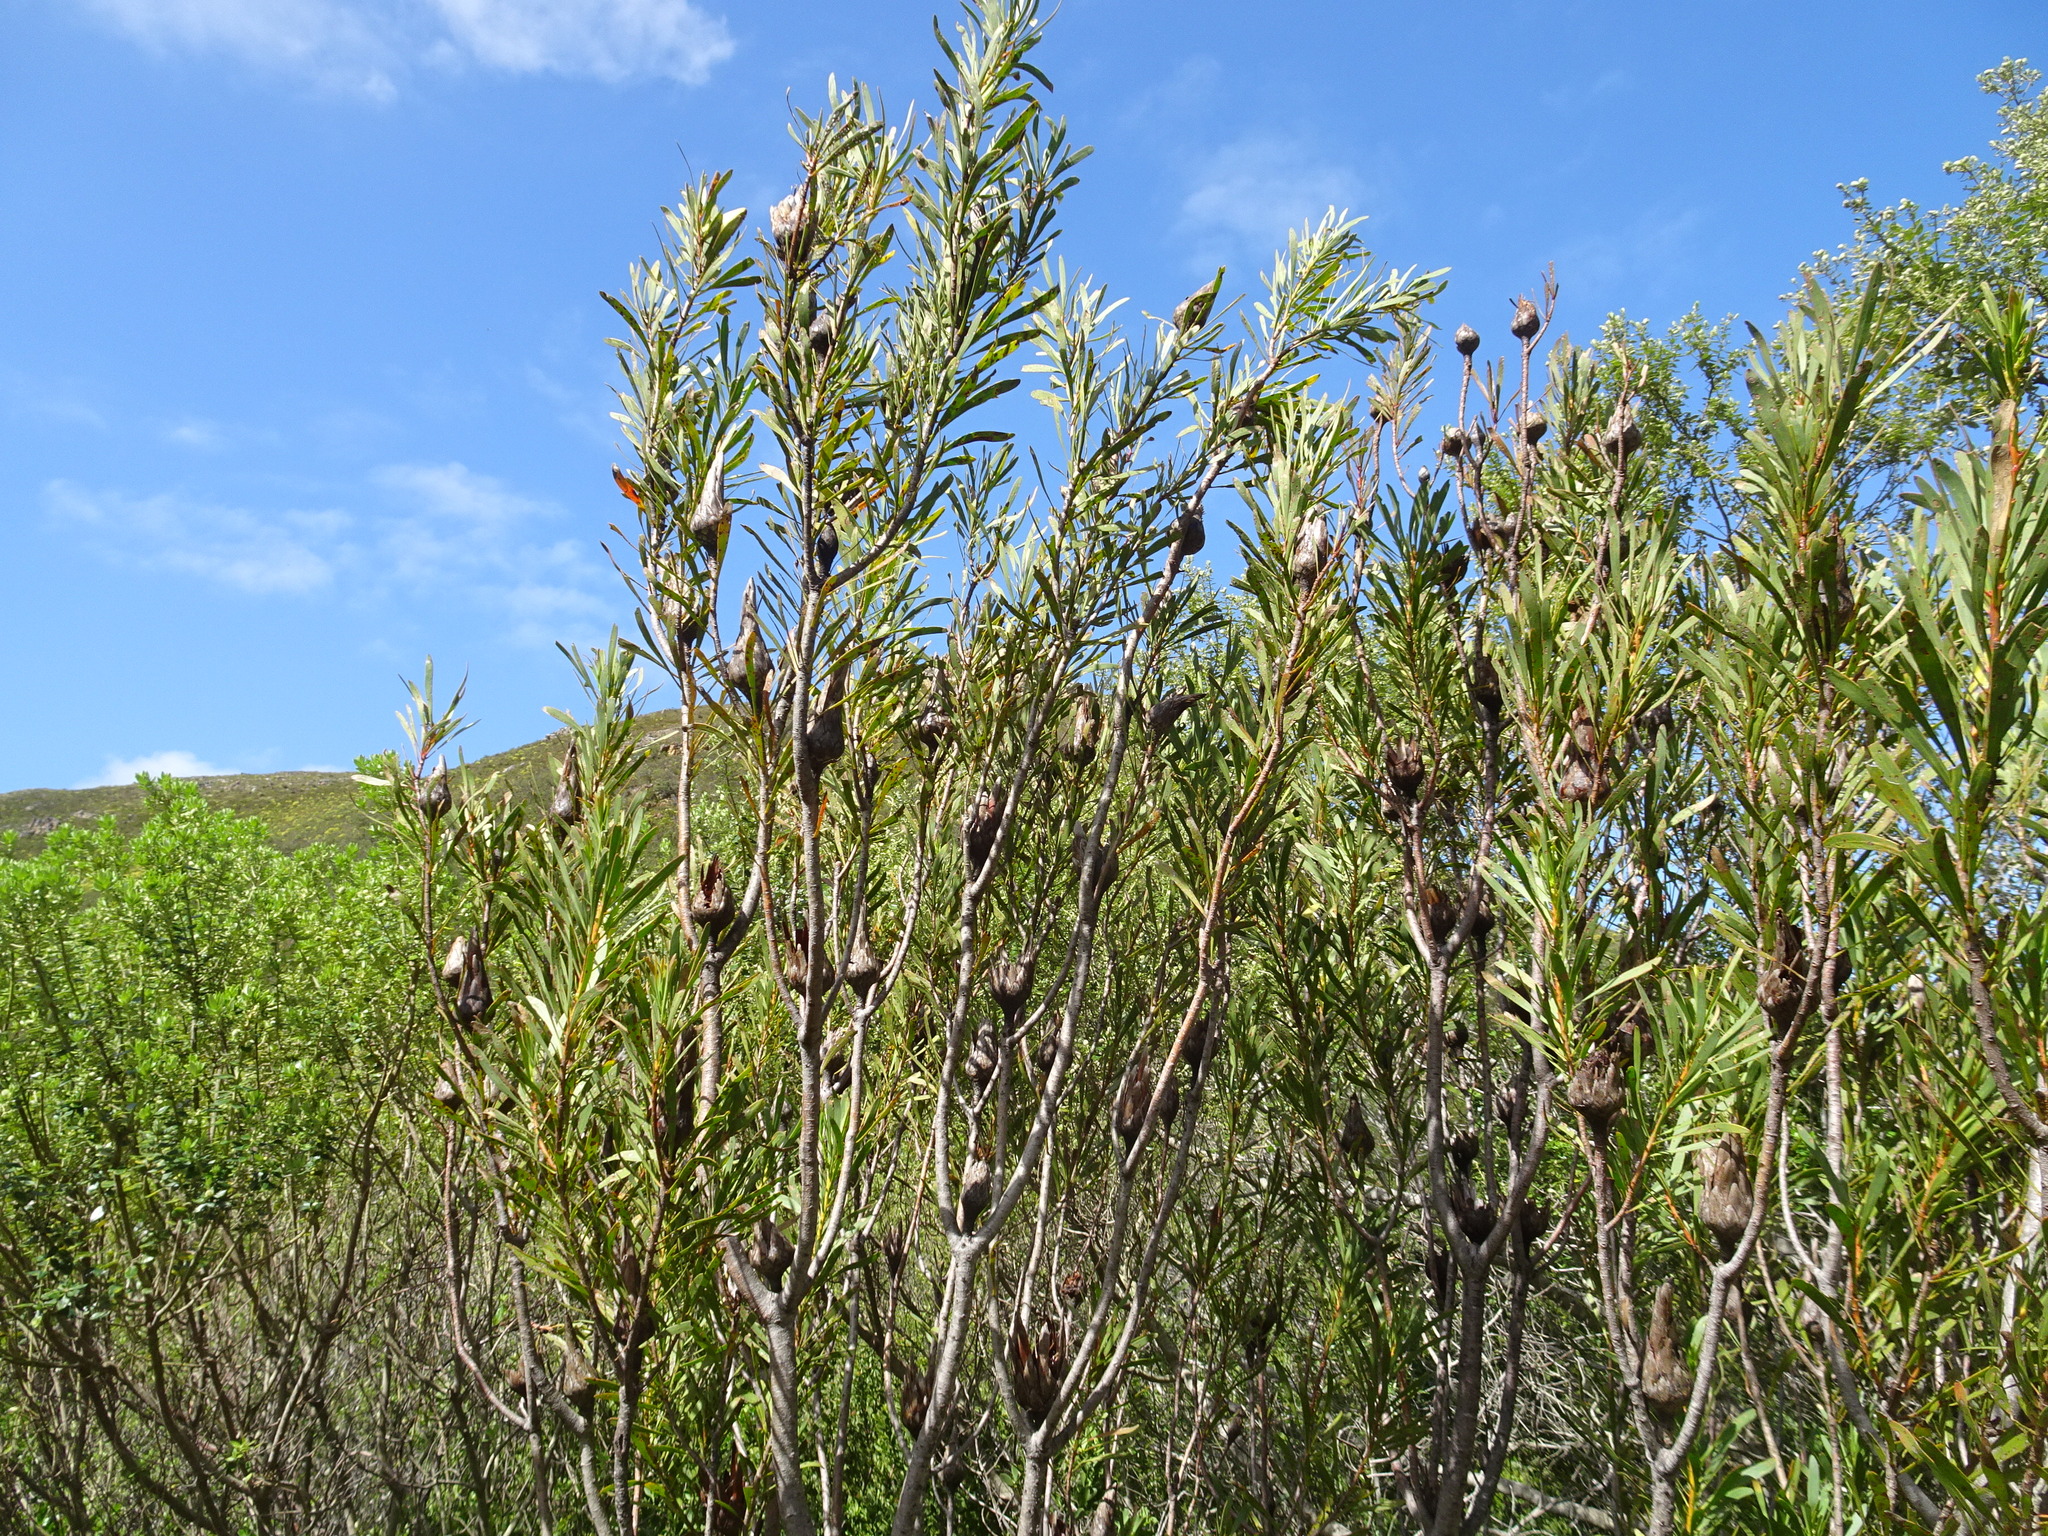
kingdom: Plantae
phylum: Tracheophyta
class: Magnoliopsida
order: Proteales
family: Proteaceae
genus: Protea
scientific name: Protea repens
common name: Sugarbush
